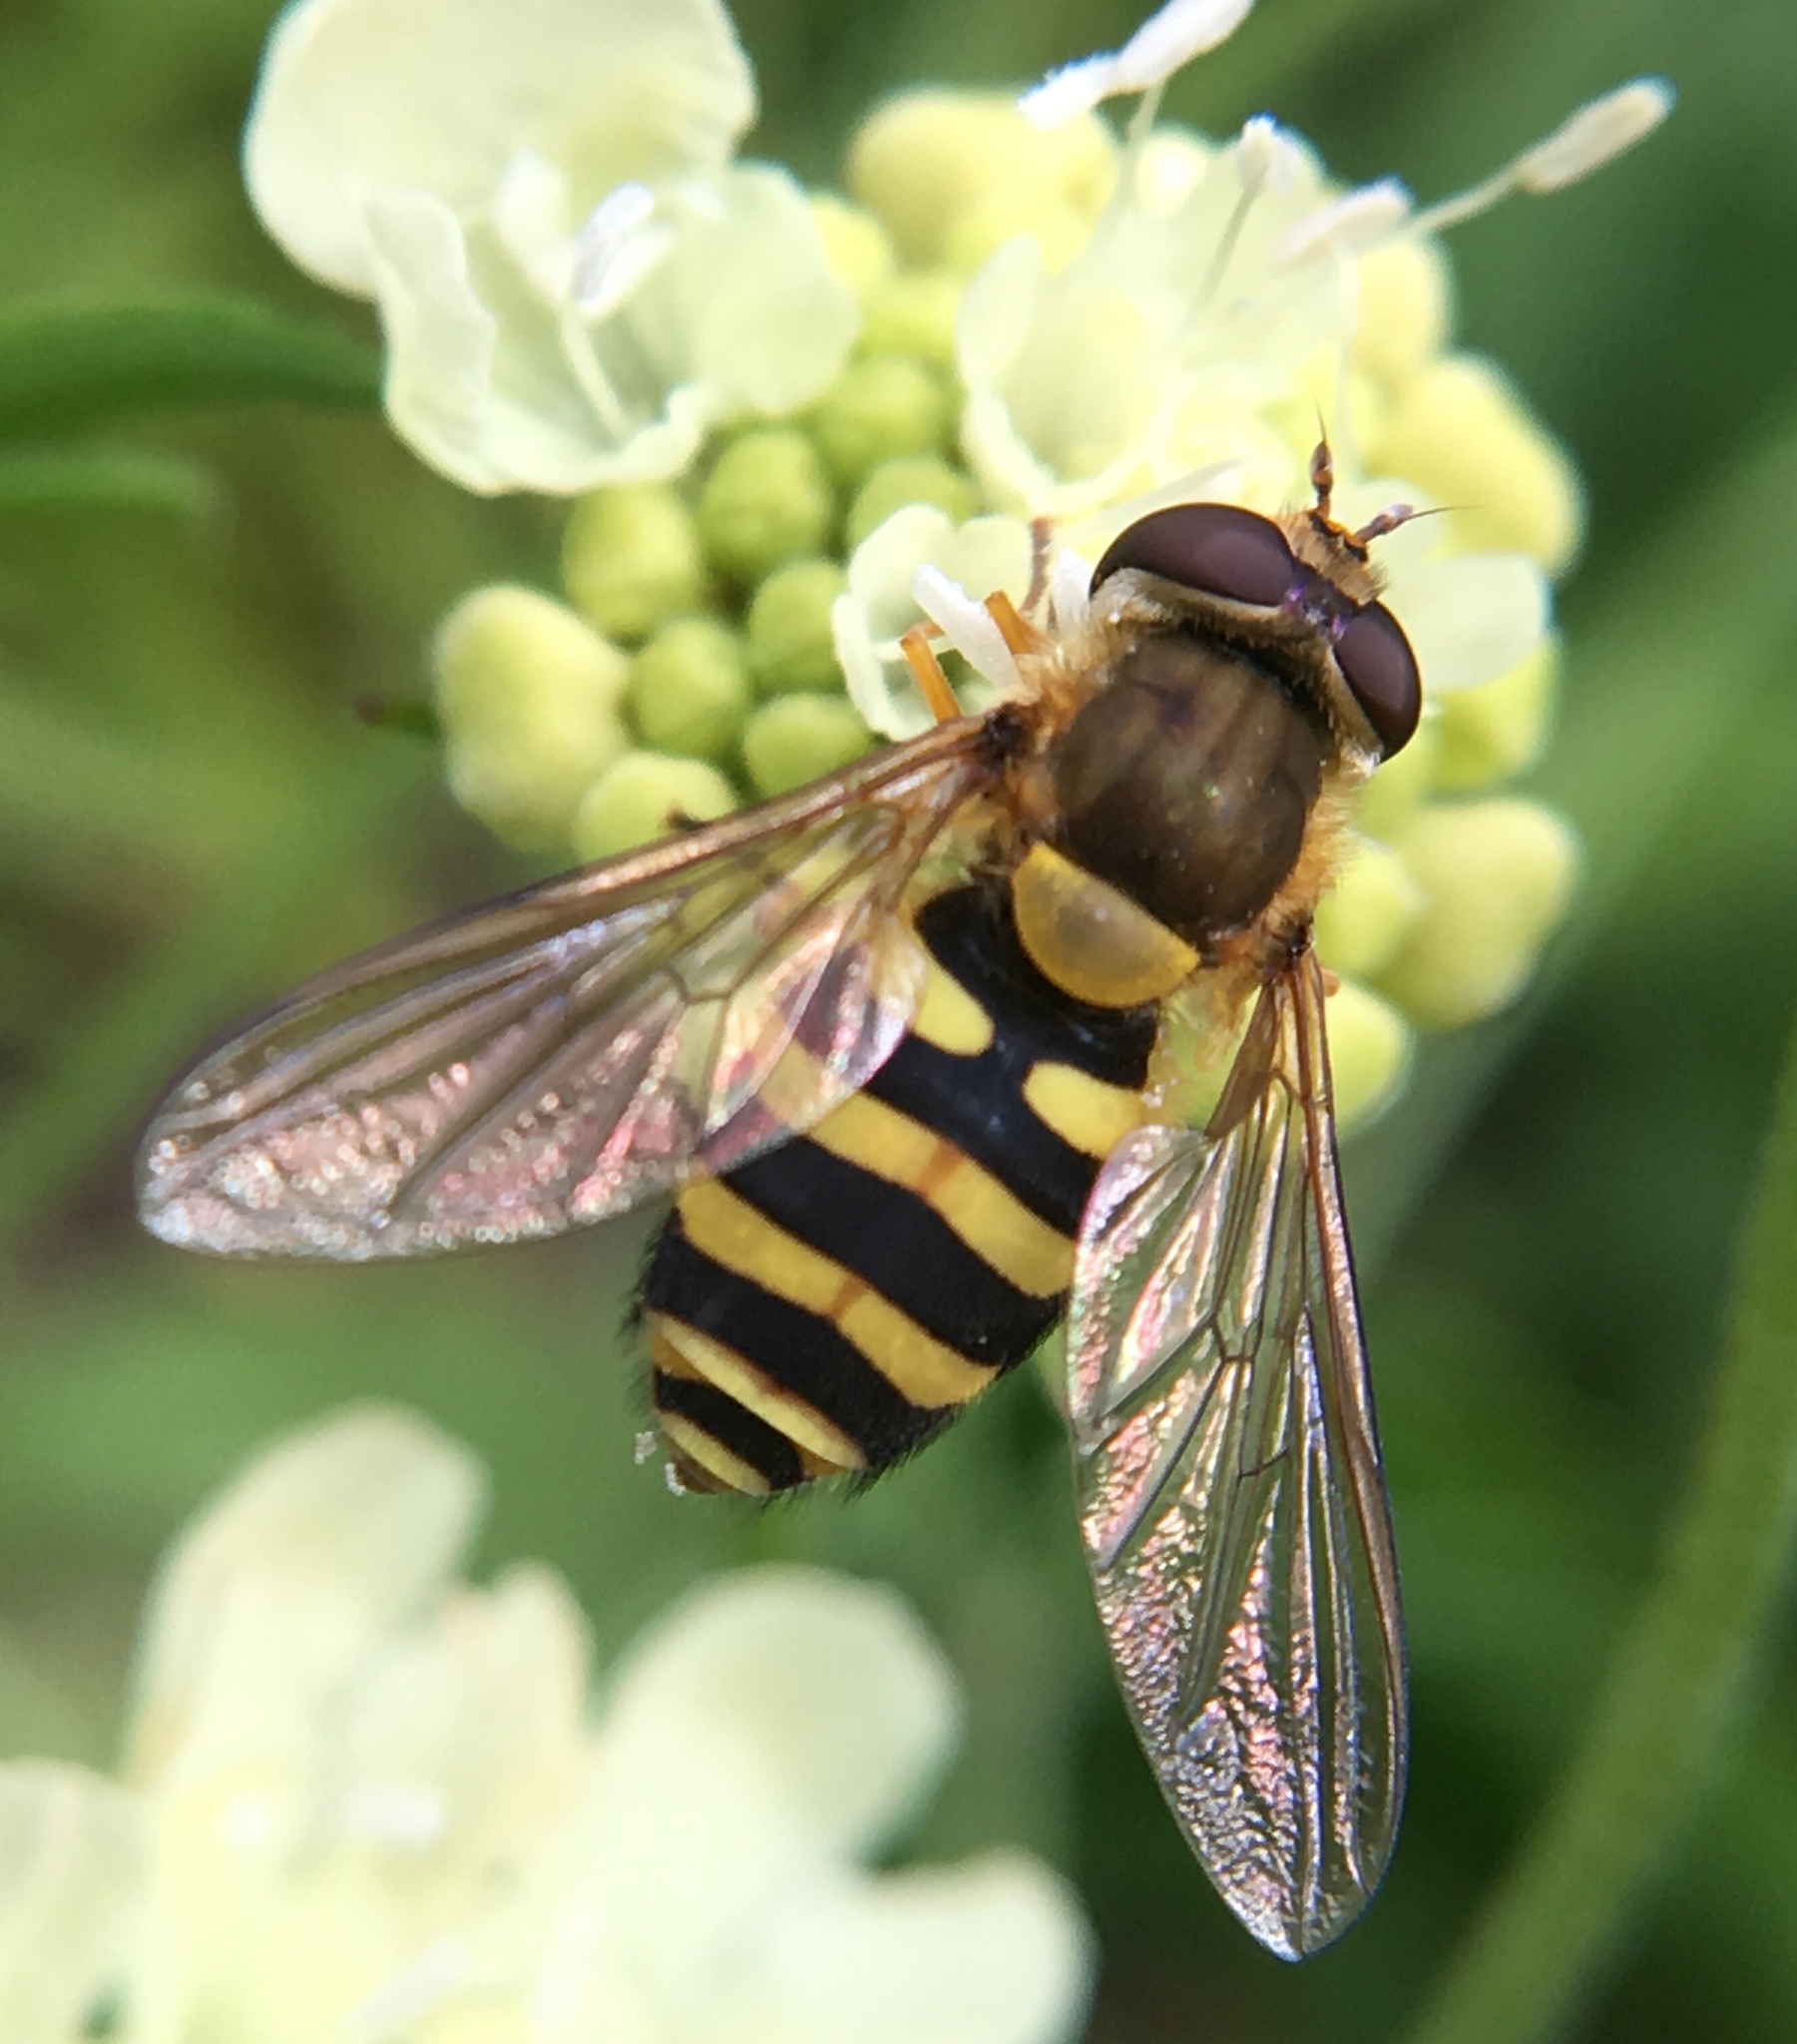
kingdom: Animalia
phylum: Arthropoda
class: Insecta
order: Diptera
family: Syrphidae
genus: Syrphus
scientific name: Syrphus ribesii
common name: Common flower fly
